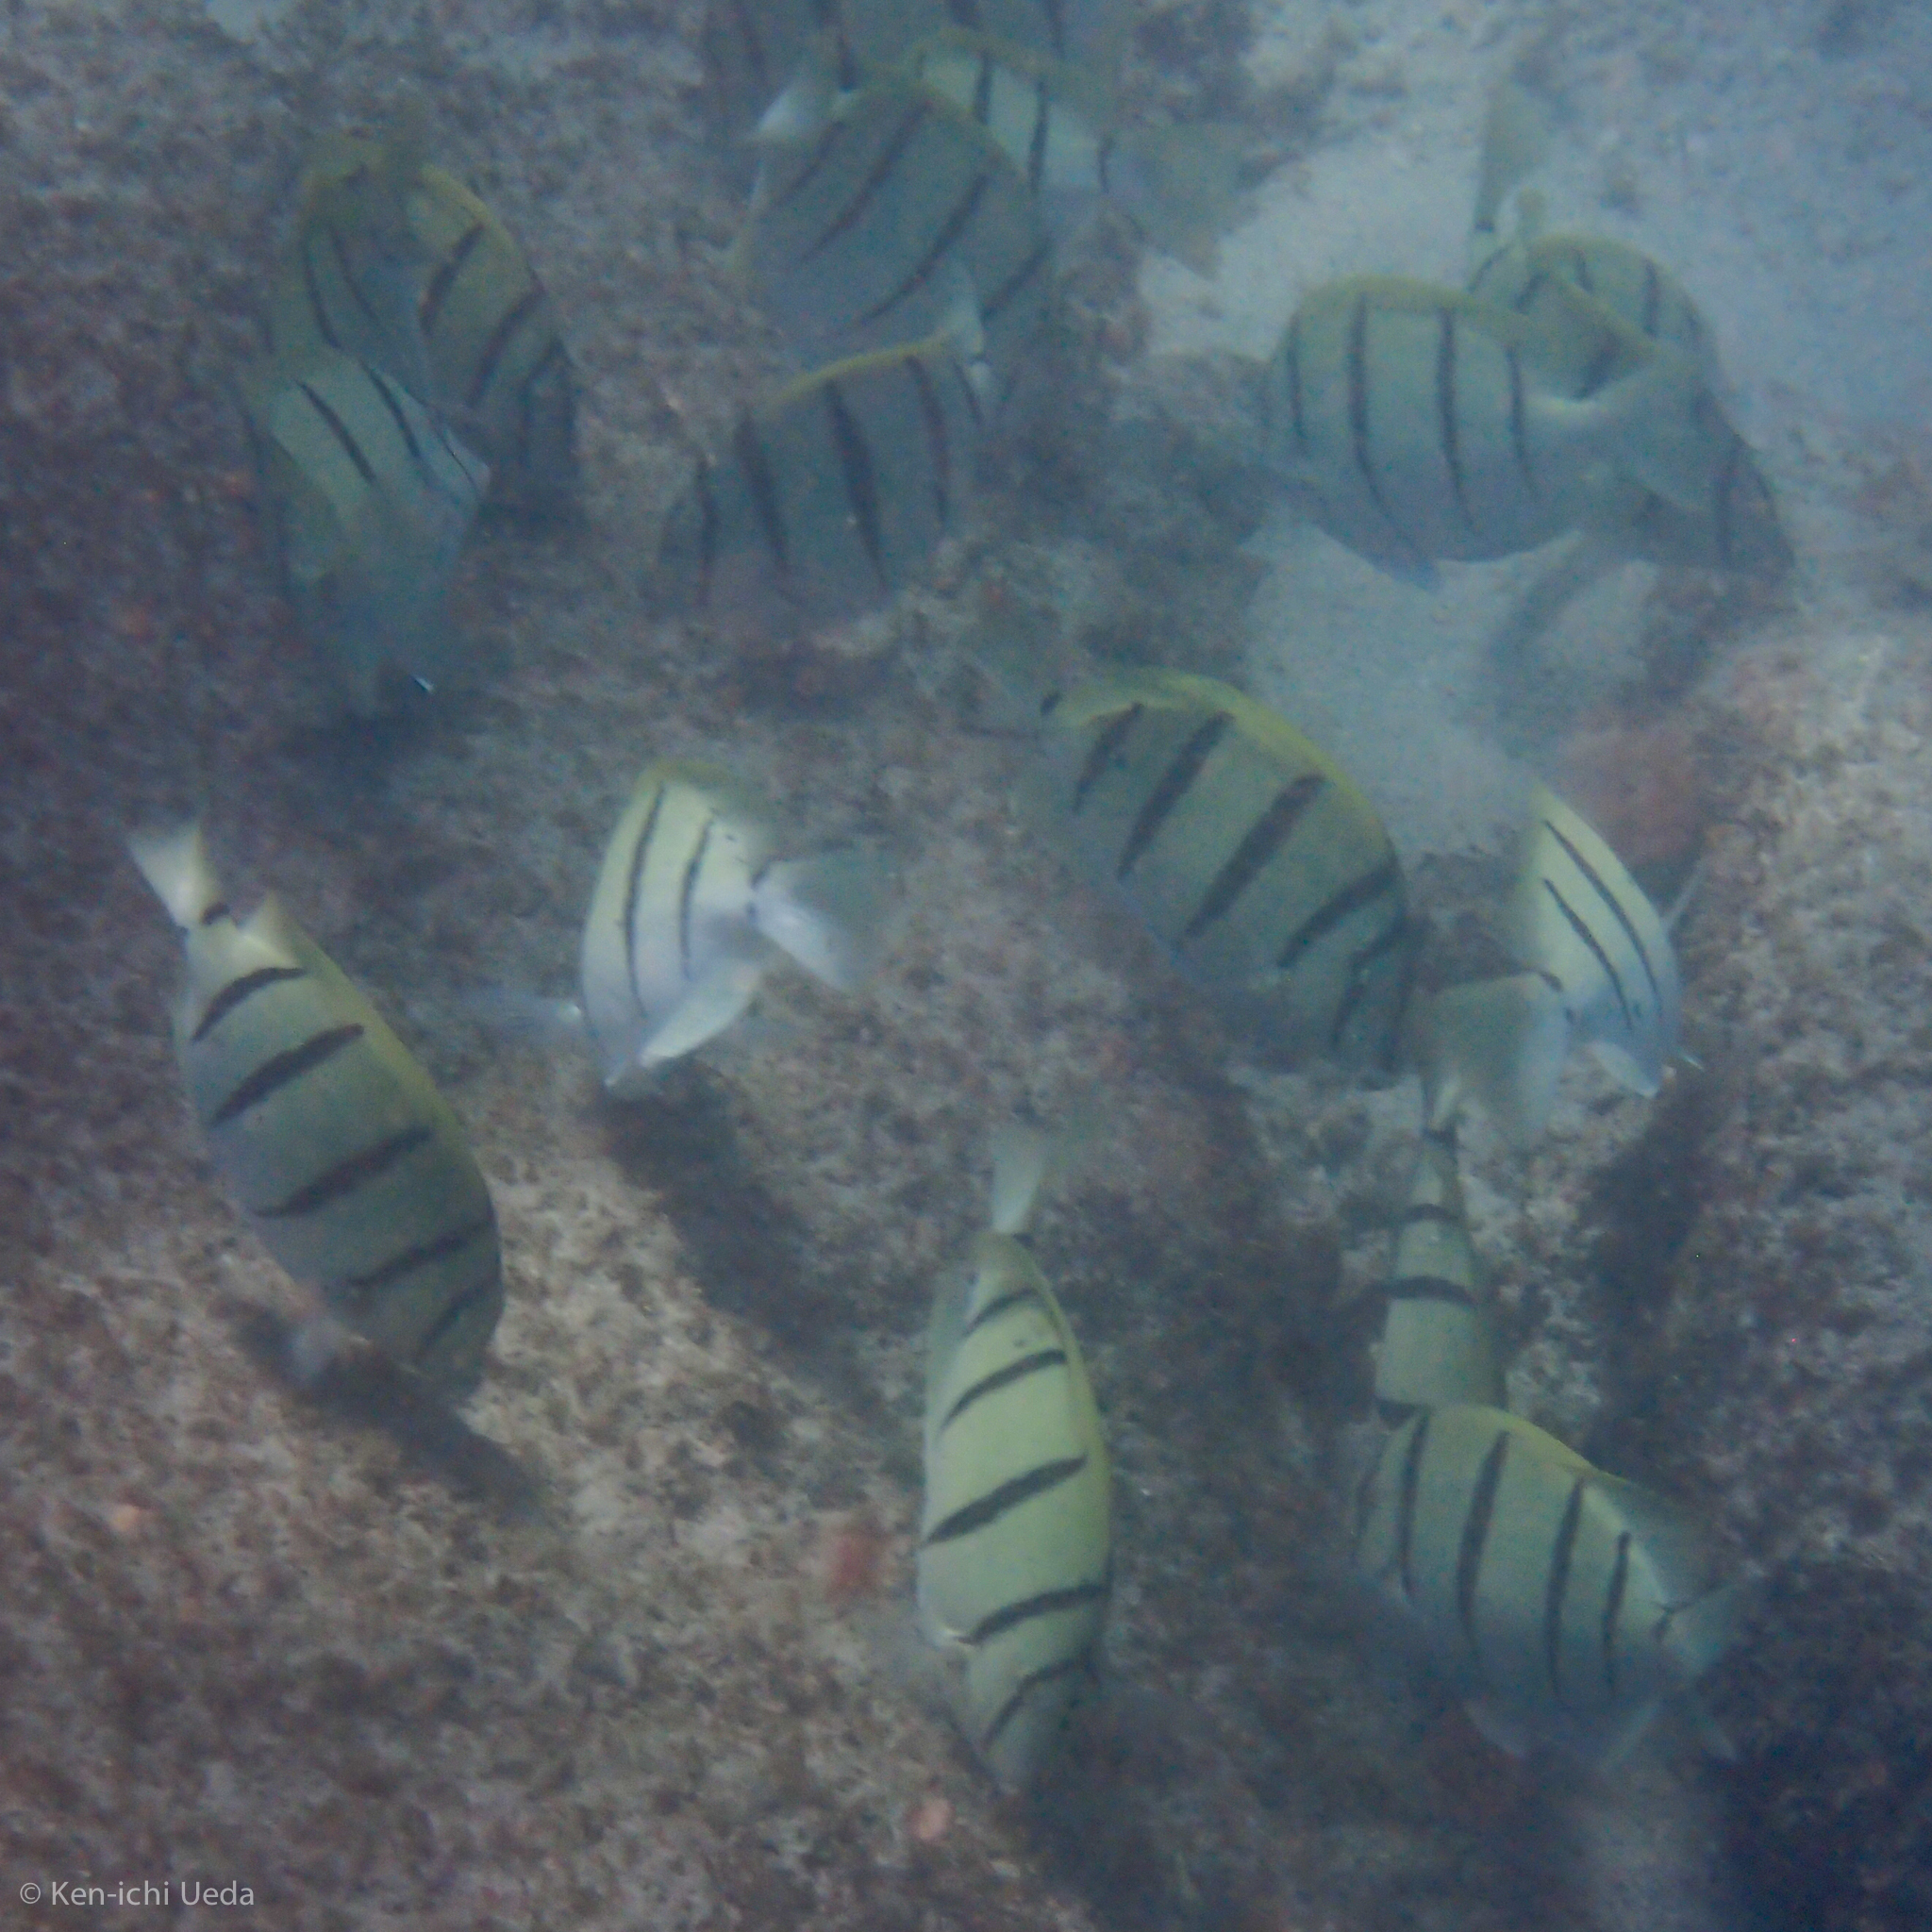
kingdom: Animalia
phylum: Chordata
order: Perciformes
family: Acanthuridae
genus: Acanthurus
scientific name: Acanthurus triostegus
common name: Convict surgeonfish
